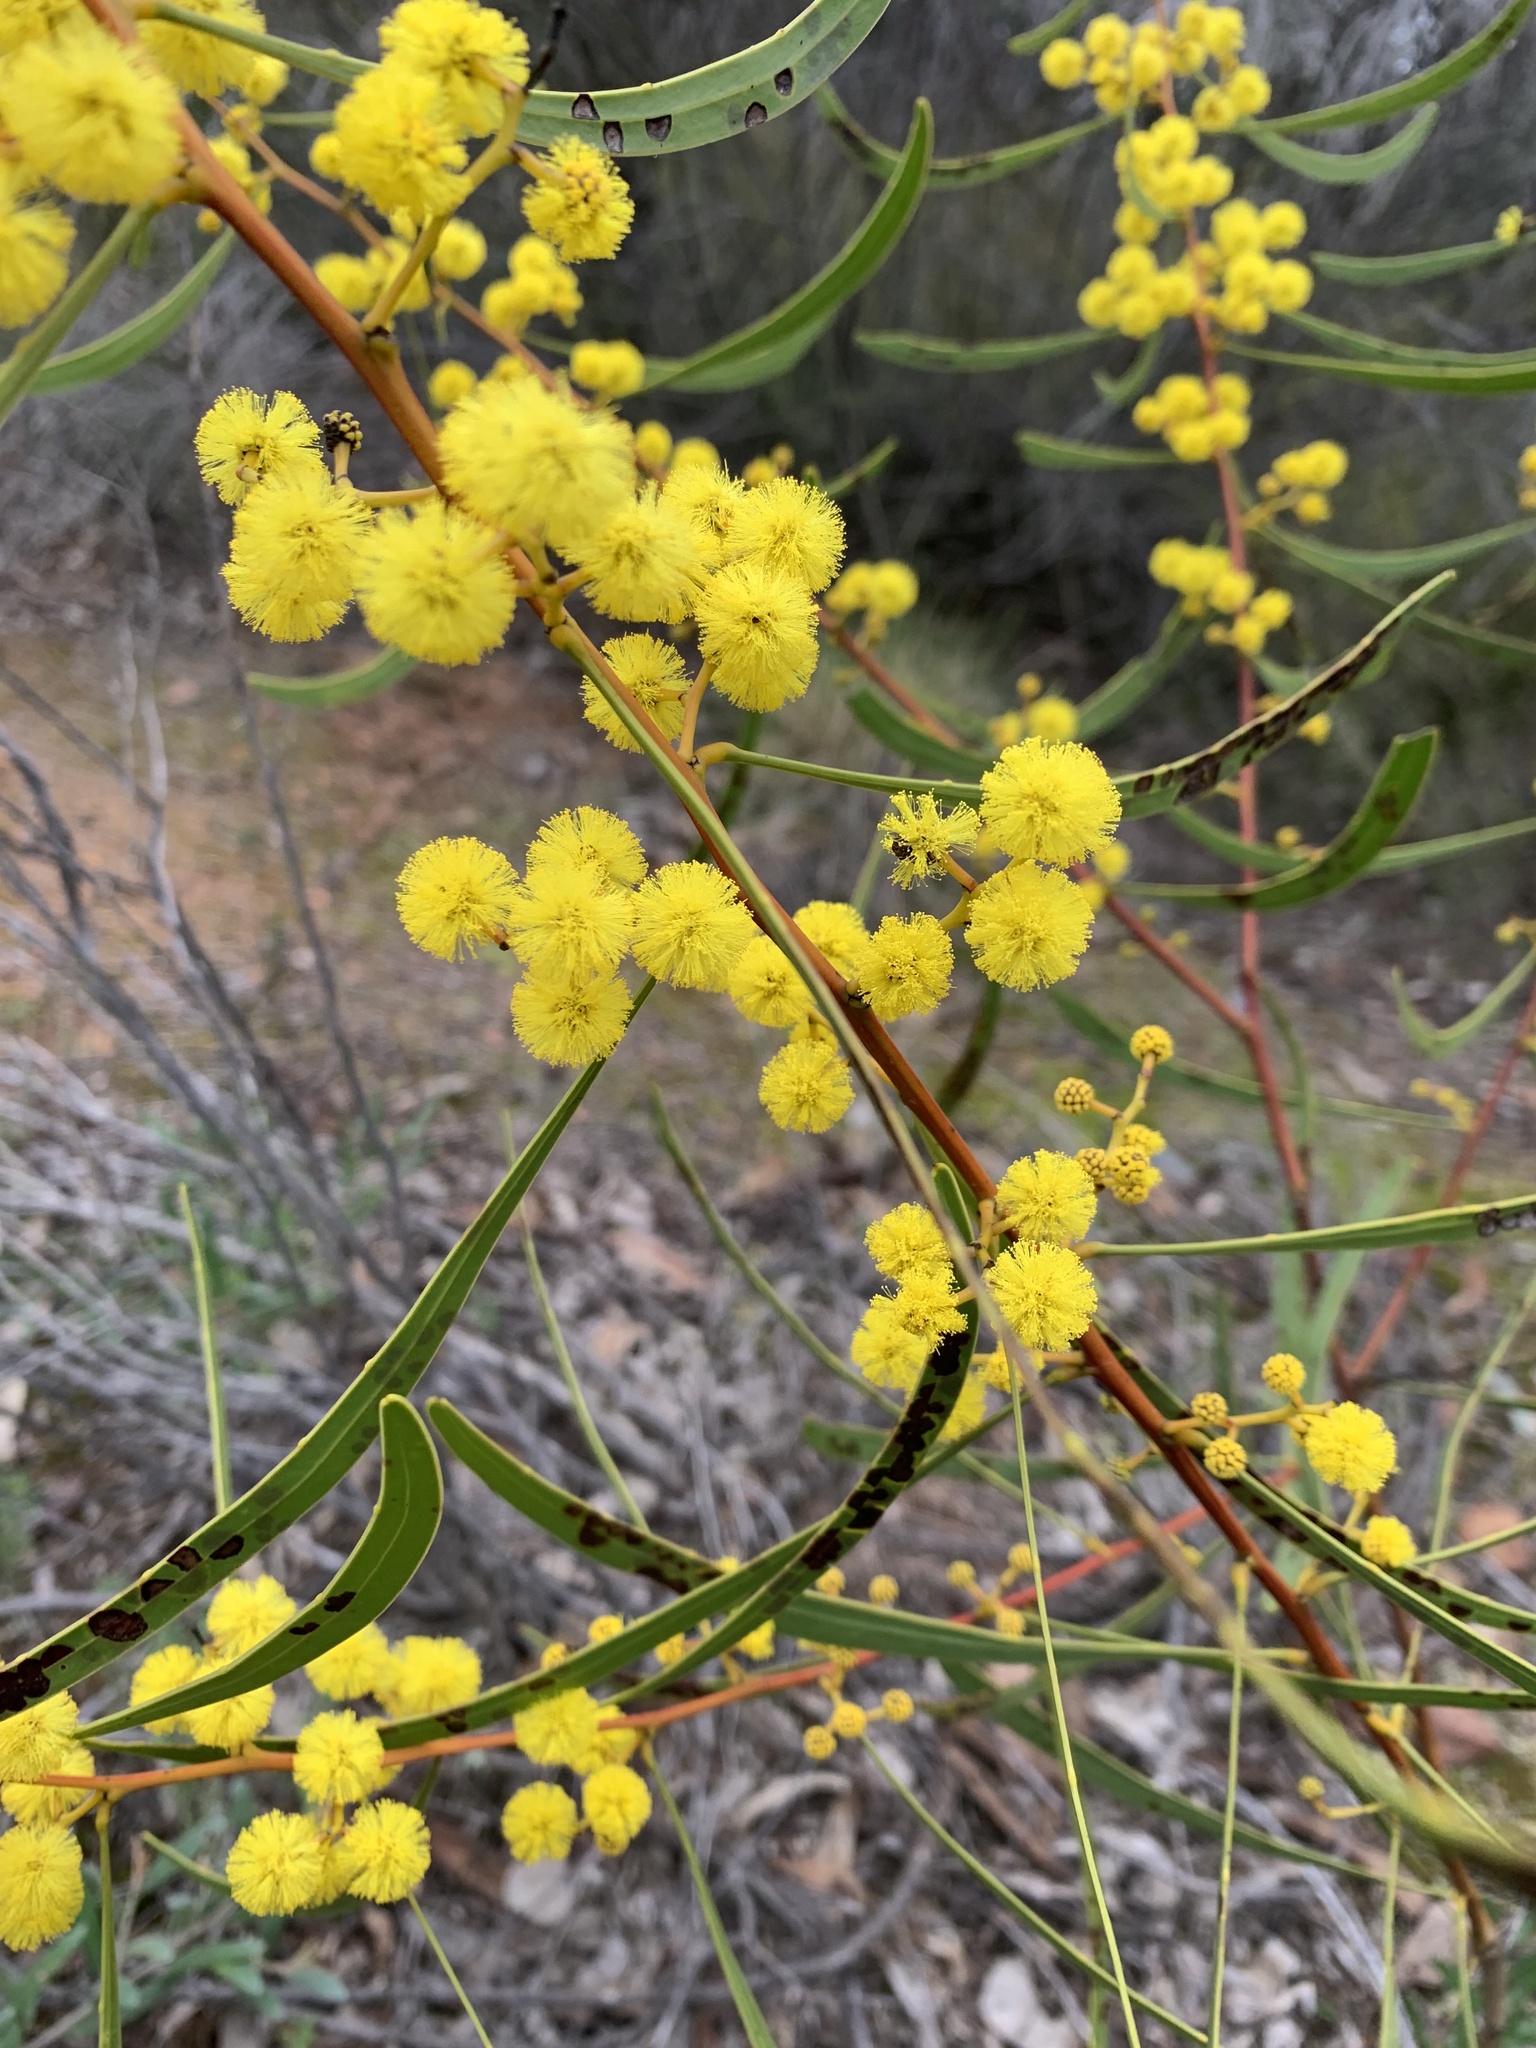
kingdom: Plantae
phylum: Tracheophyta
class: Magnoliopsida
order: Fabales
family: Fabaceae
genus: Acacia
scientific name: Acacia gladiiformis
